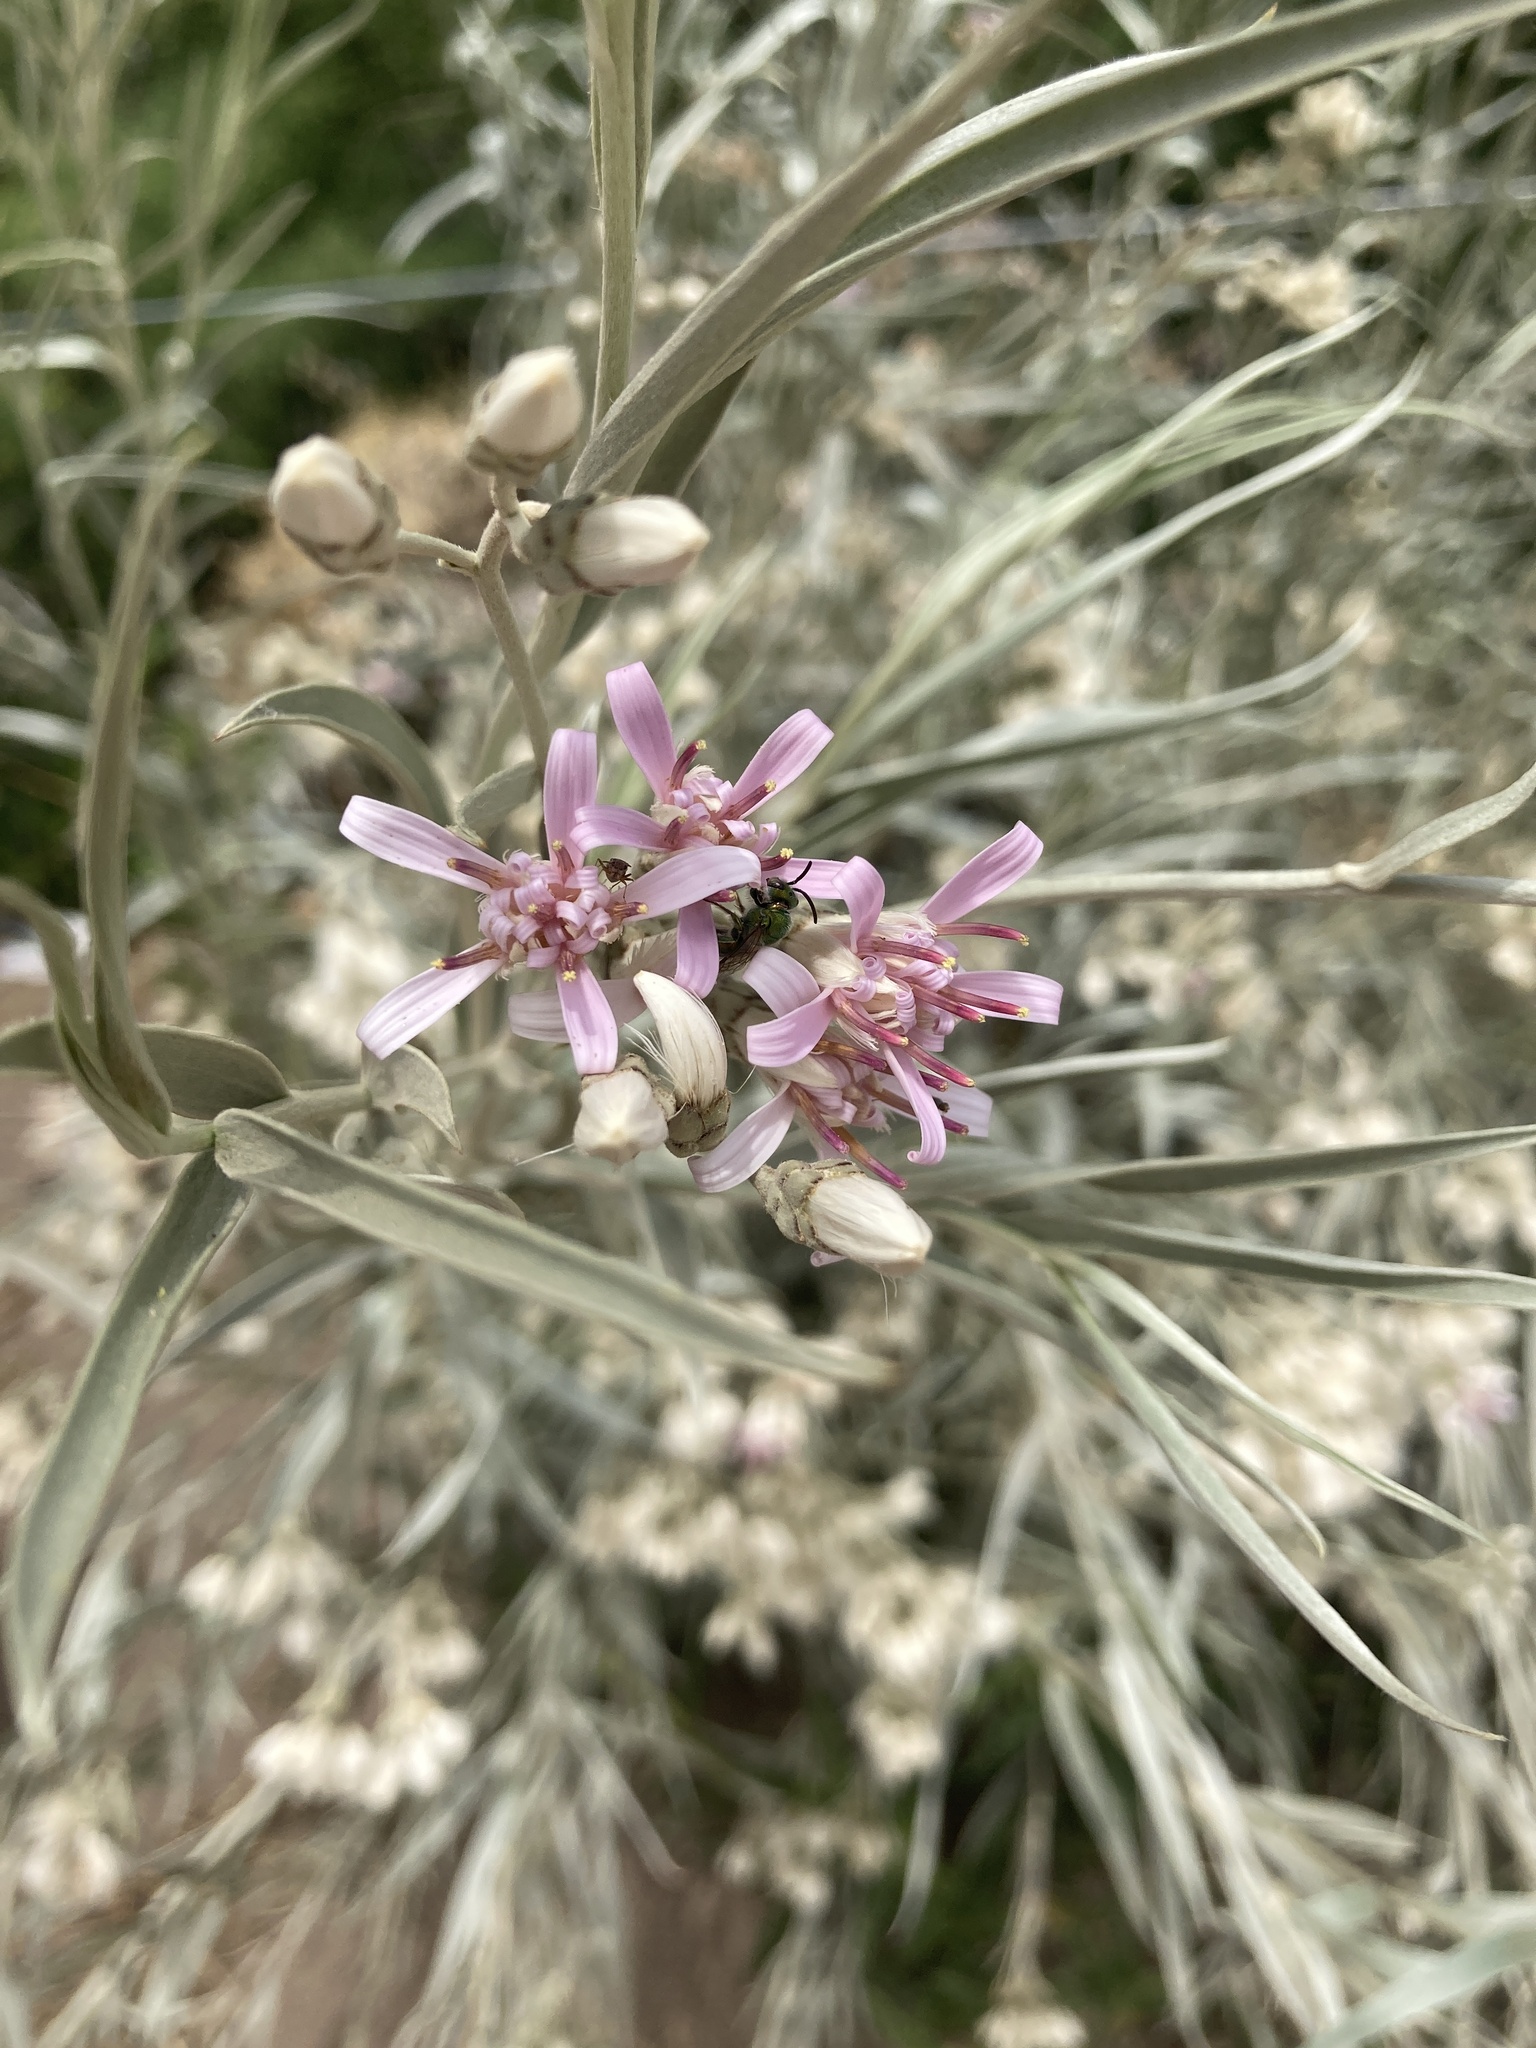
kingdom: Plantae
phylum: Tracheophyta
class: Magnoliopsida
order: Asterales
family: Asteraceae
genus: Hyalis
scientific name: Hyalis argentea
